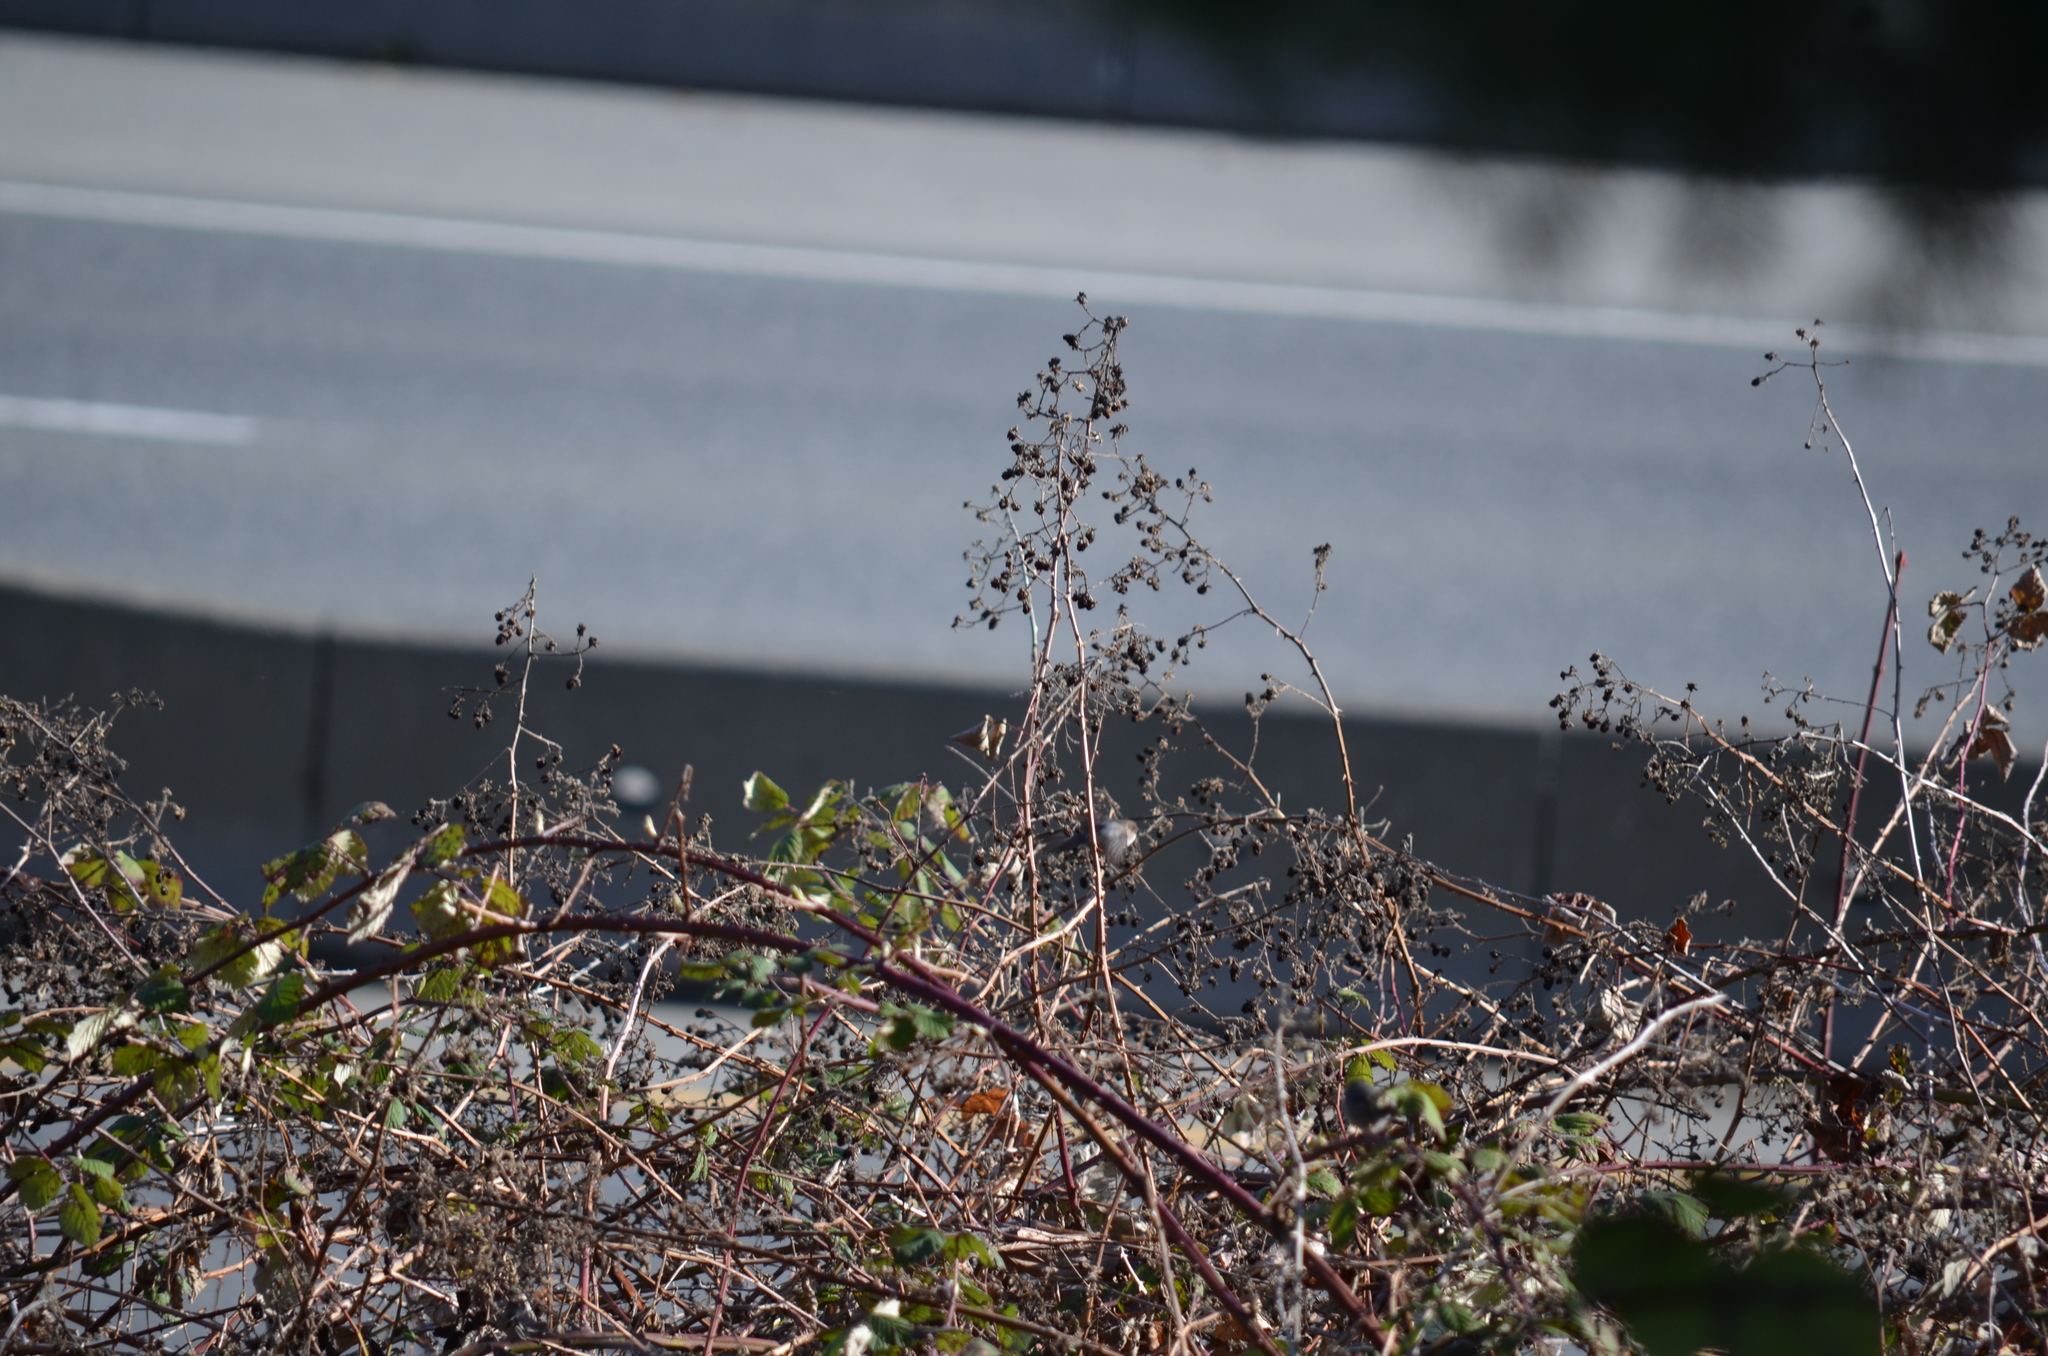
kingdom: Animalia
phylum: Chordata
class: Aves
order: Passeriformes
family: Aegithalidae
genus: Psaltriparus
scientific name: Psaltriparus minimus
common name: American bushtit
